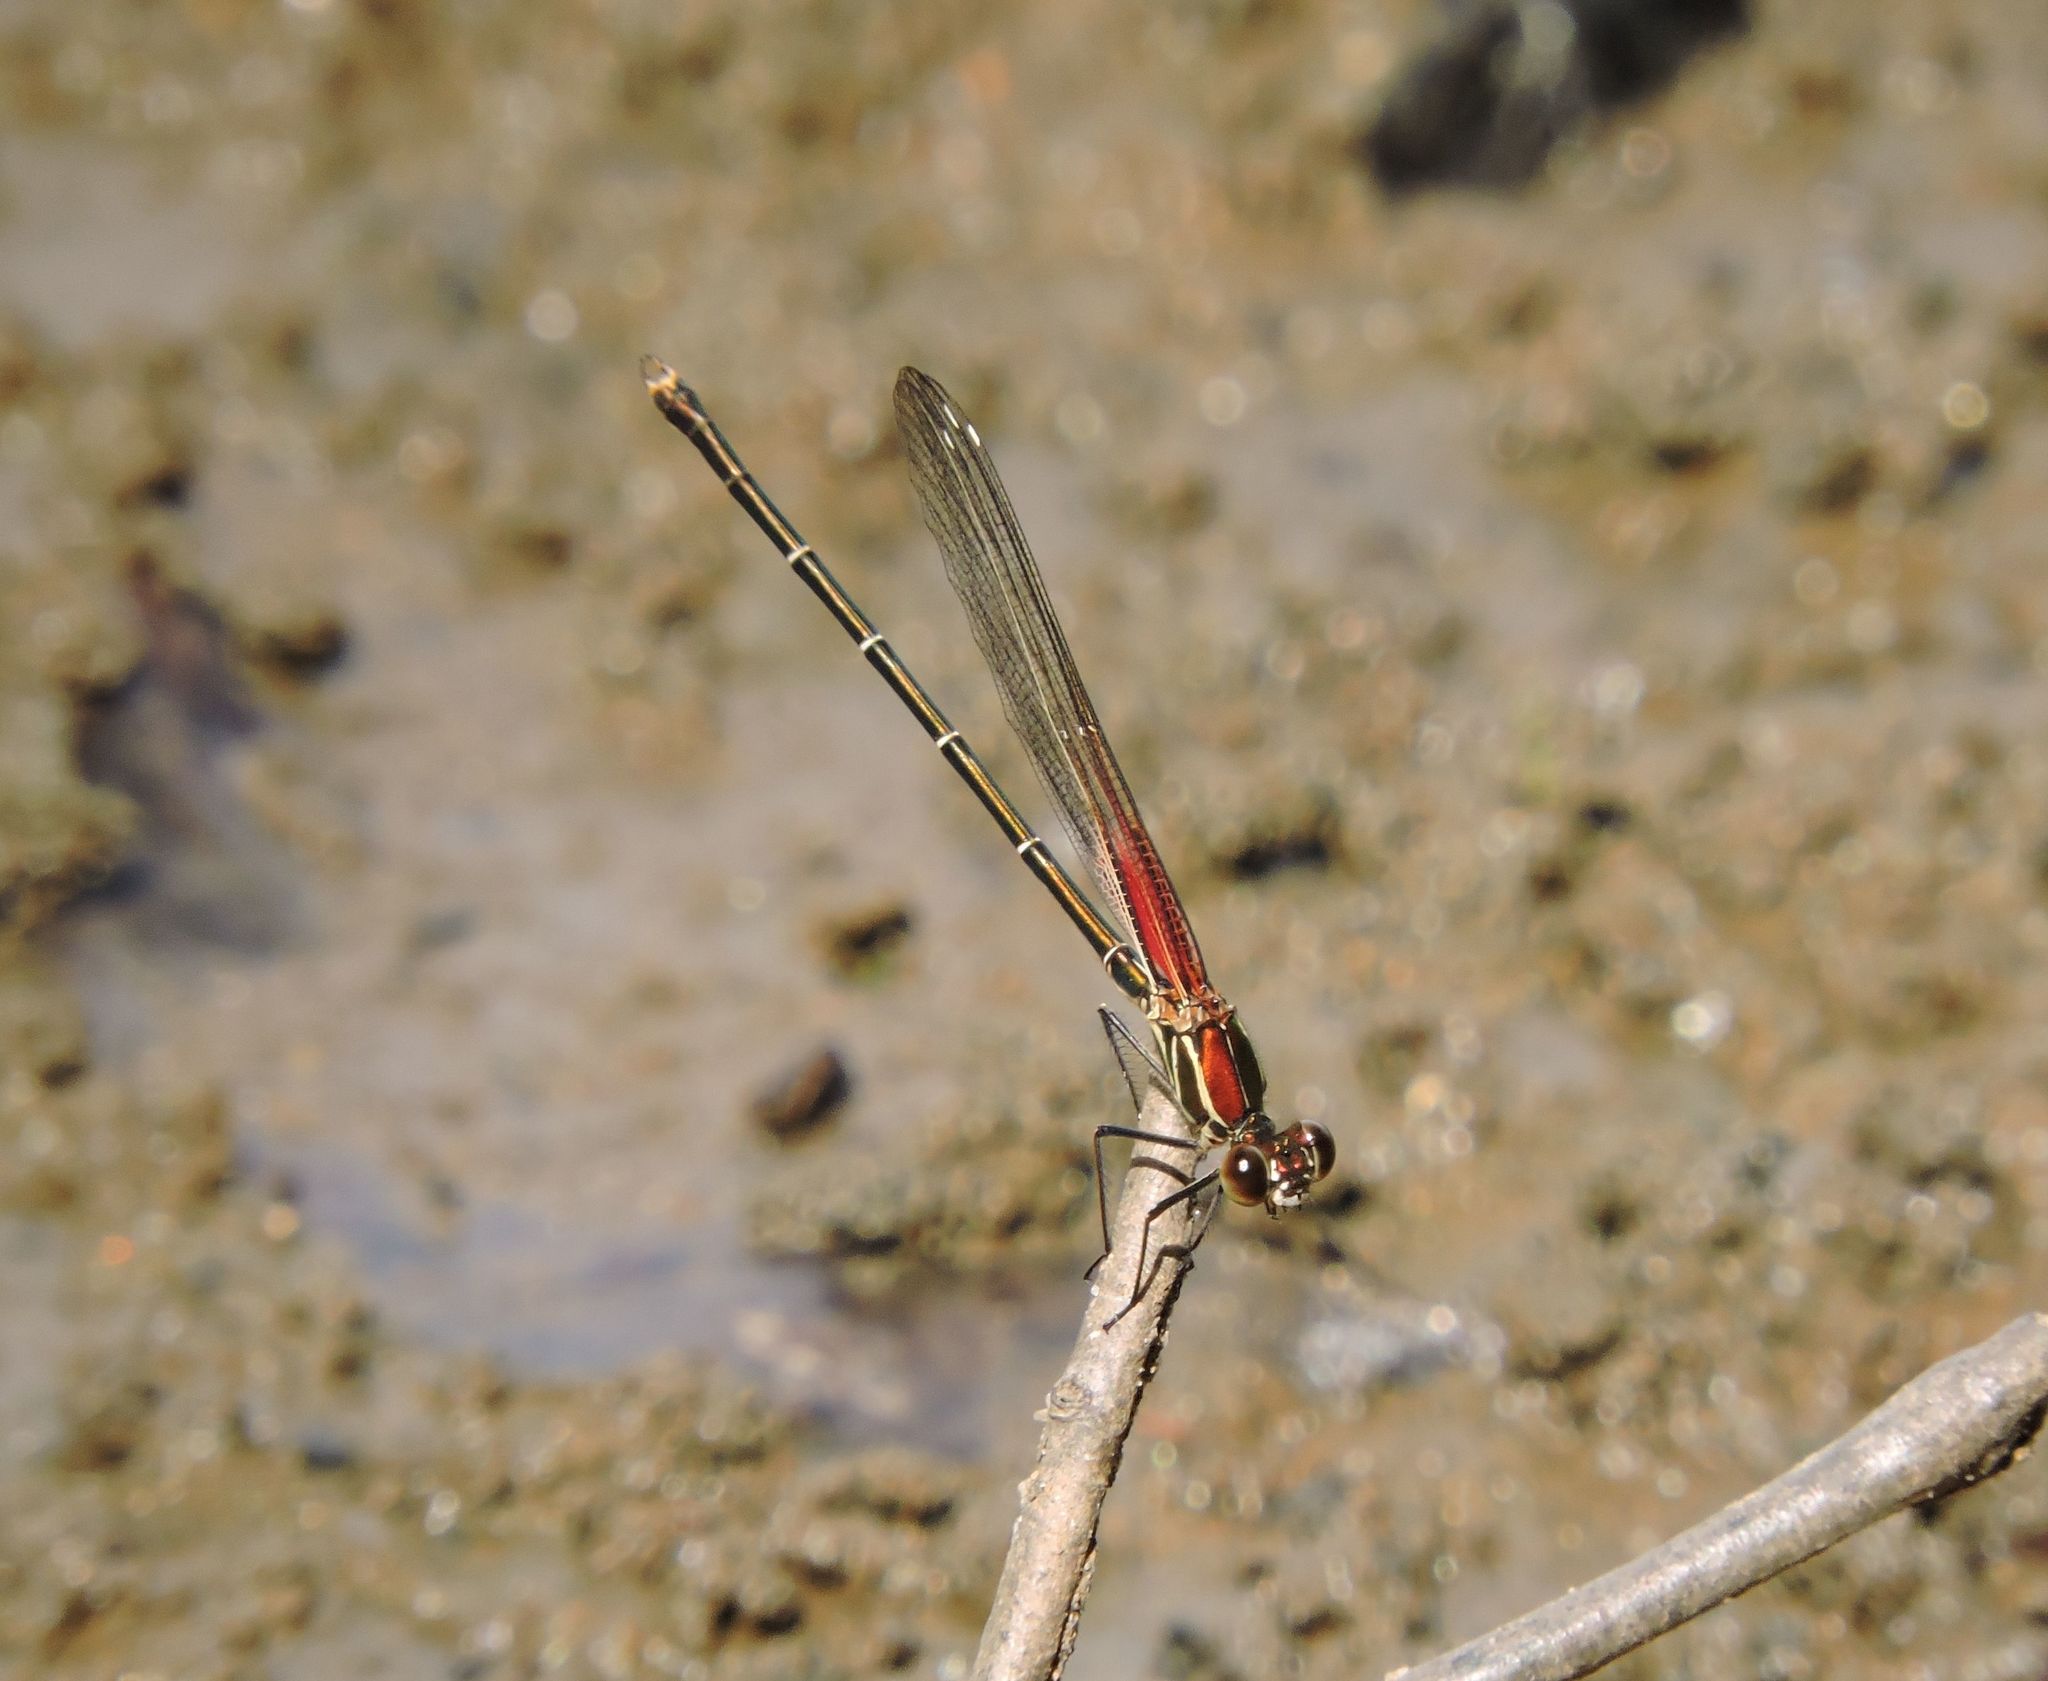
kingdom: Animalia
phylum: Arthropoda
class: Insecta
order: Odonata
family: Calopterygidae
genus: Hetaerina
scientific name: Hetaerina americana
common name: American rubyspot
